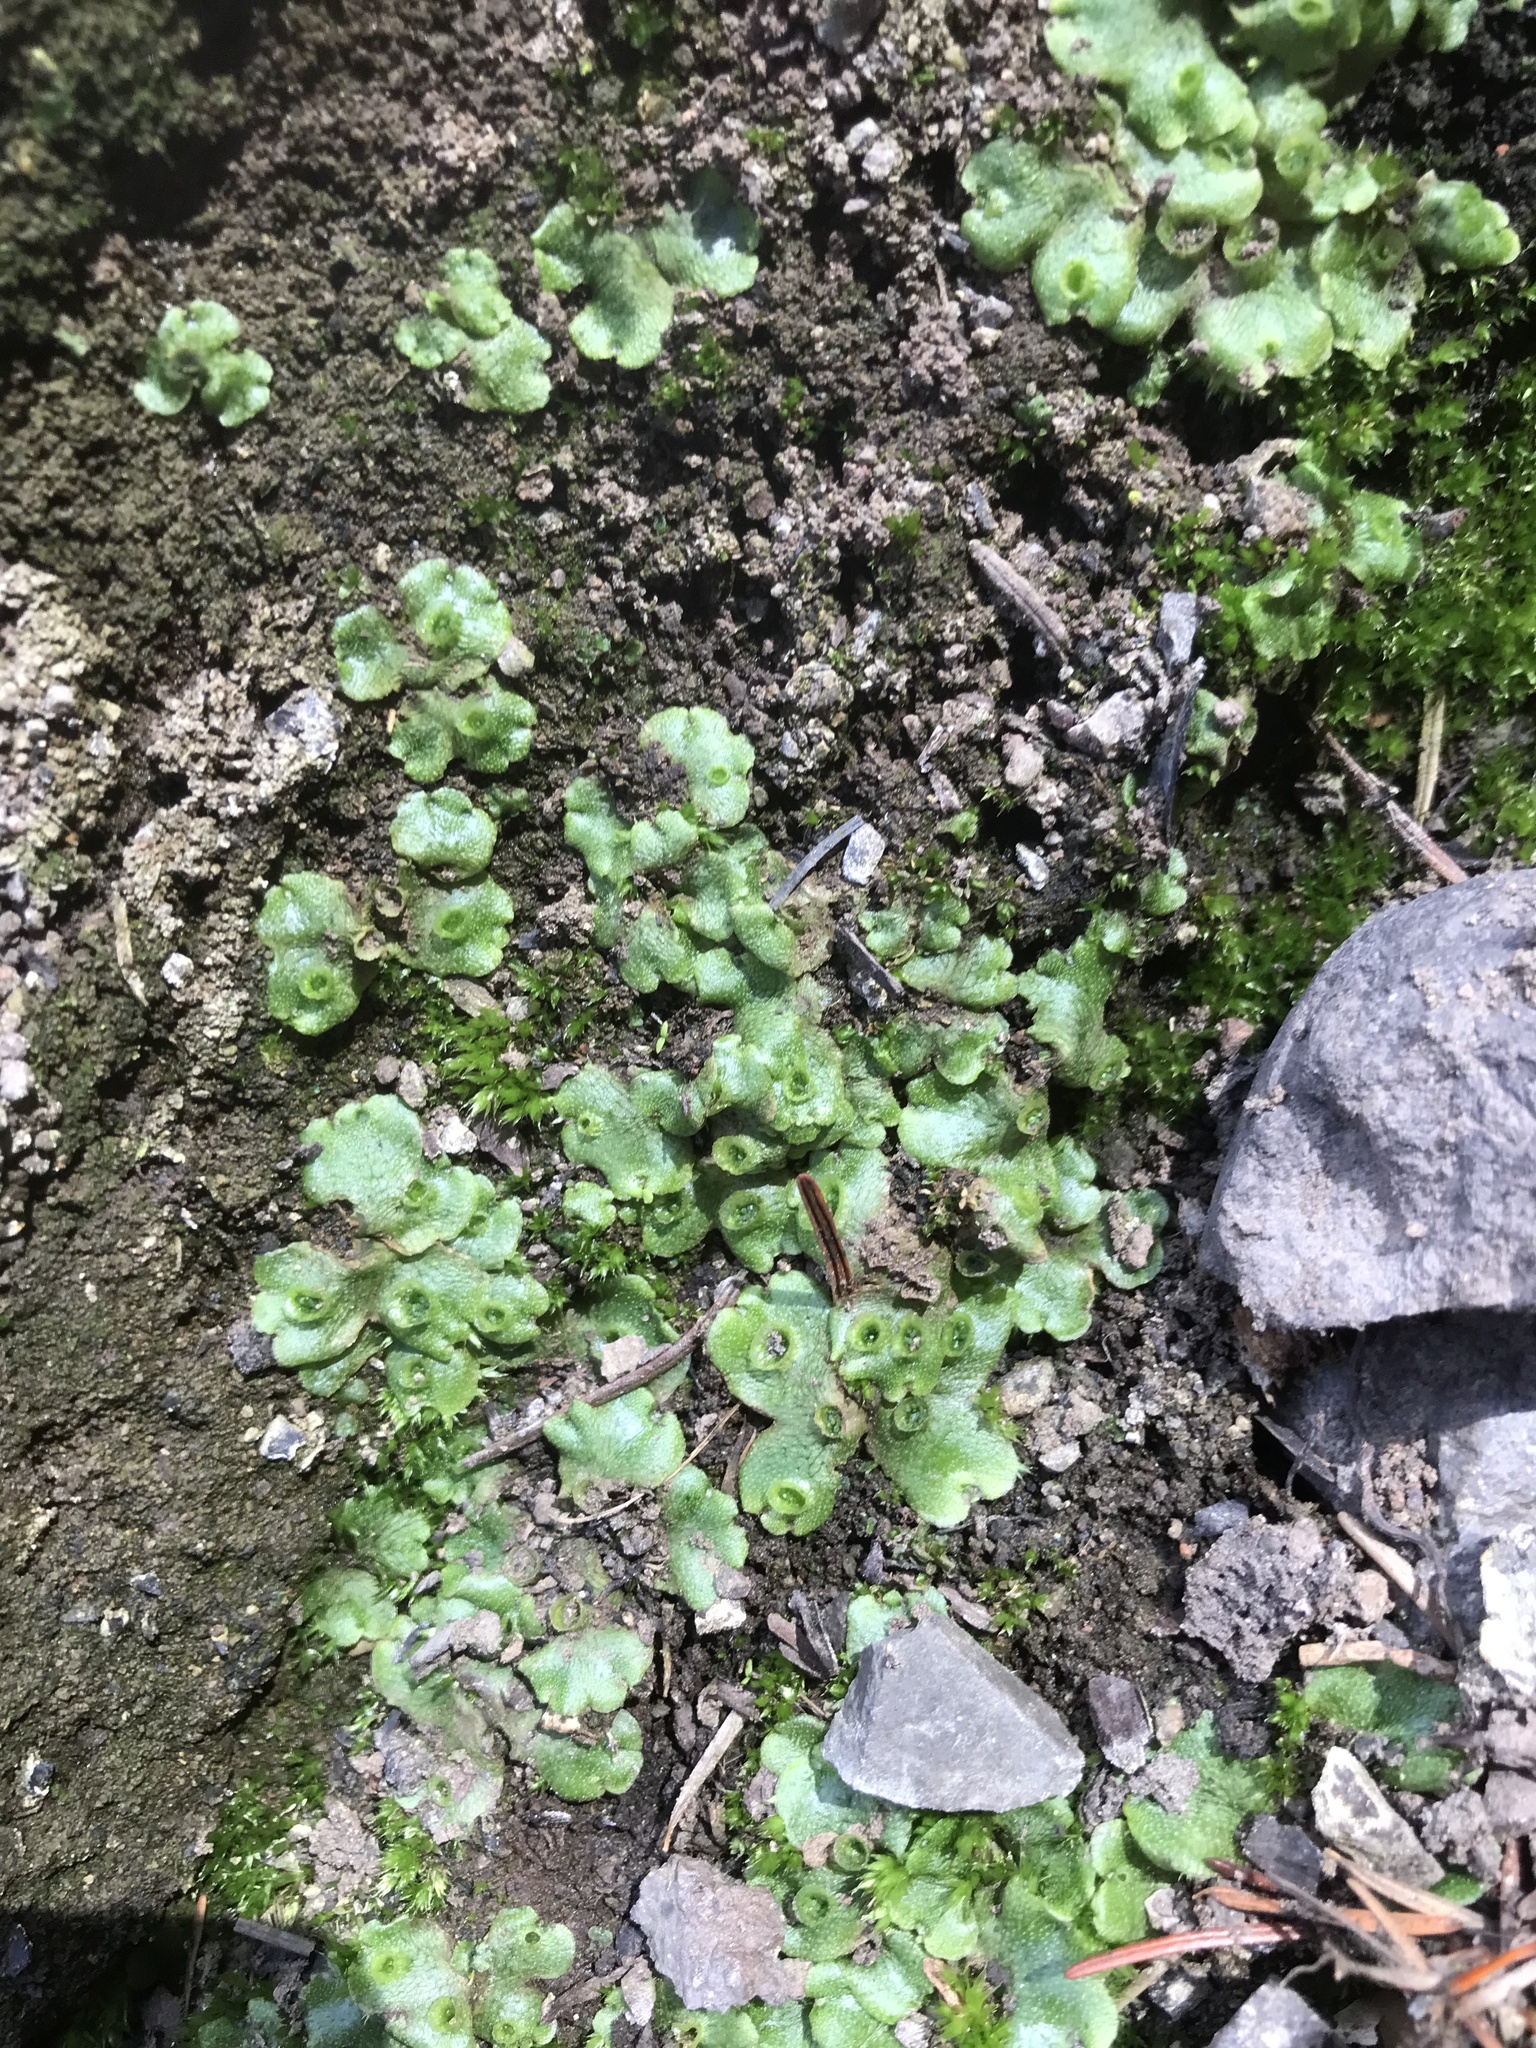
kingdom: Plantae
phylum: Marchantiophyta
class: Marchantiopsida
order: Marchantiales
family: Marchantiaceae
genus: Marchantia
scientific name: Marchantia polymorpha
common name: Common liverwort
